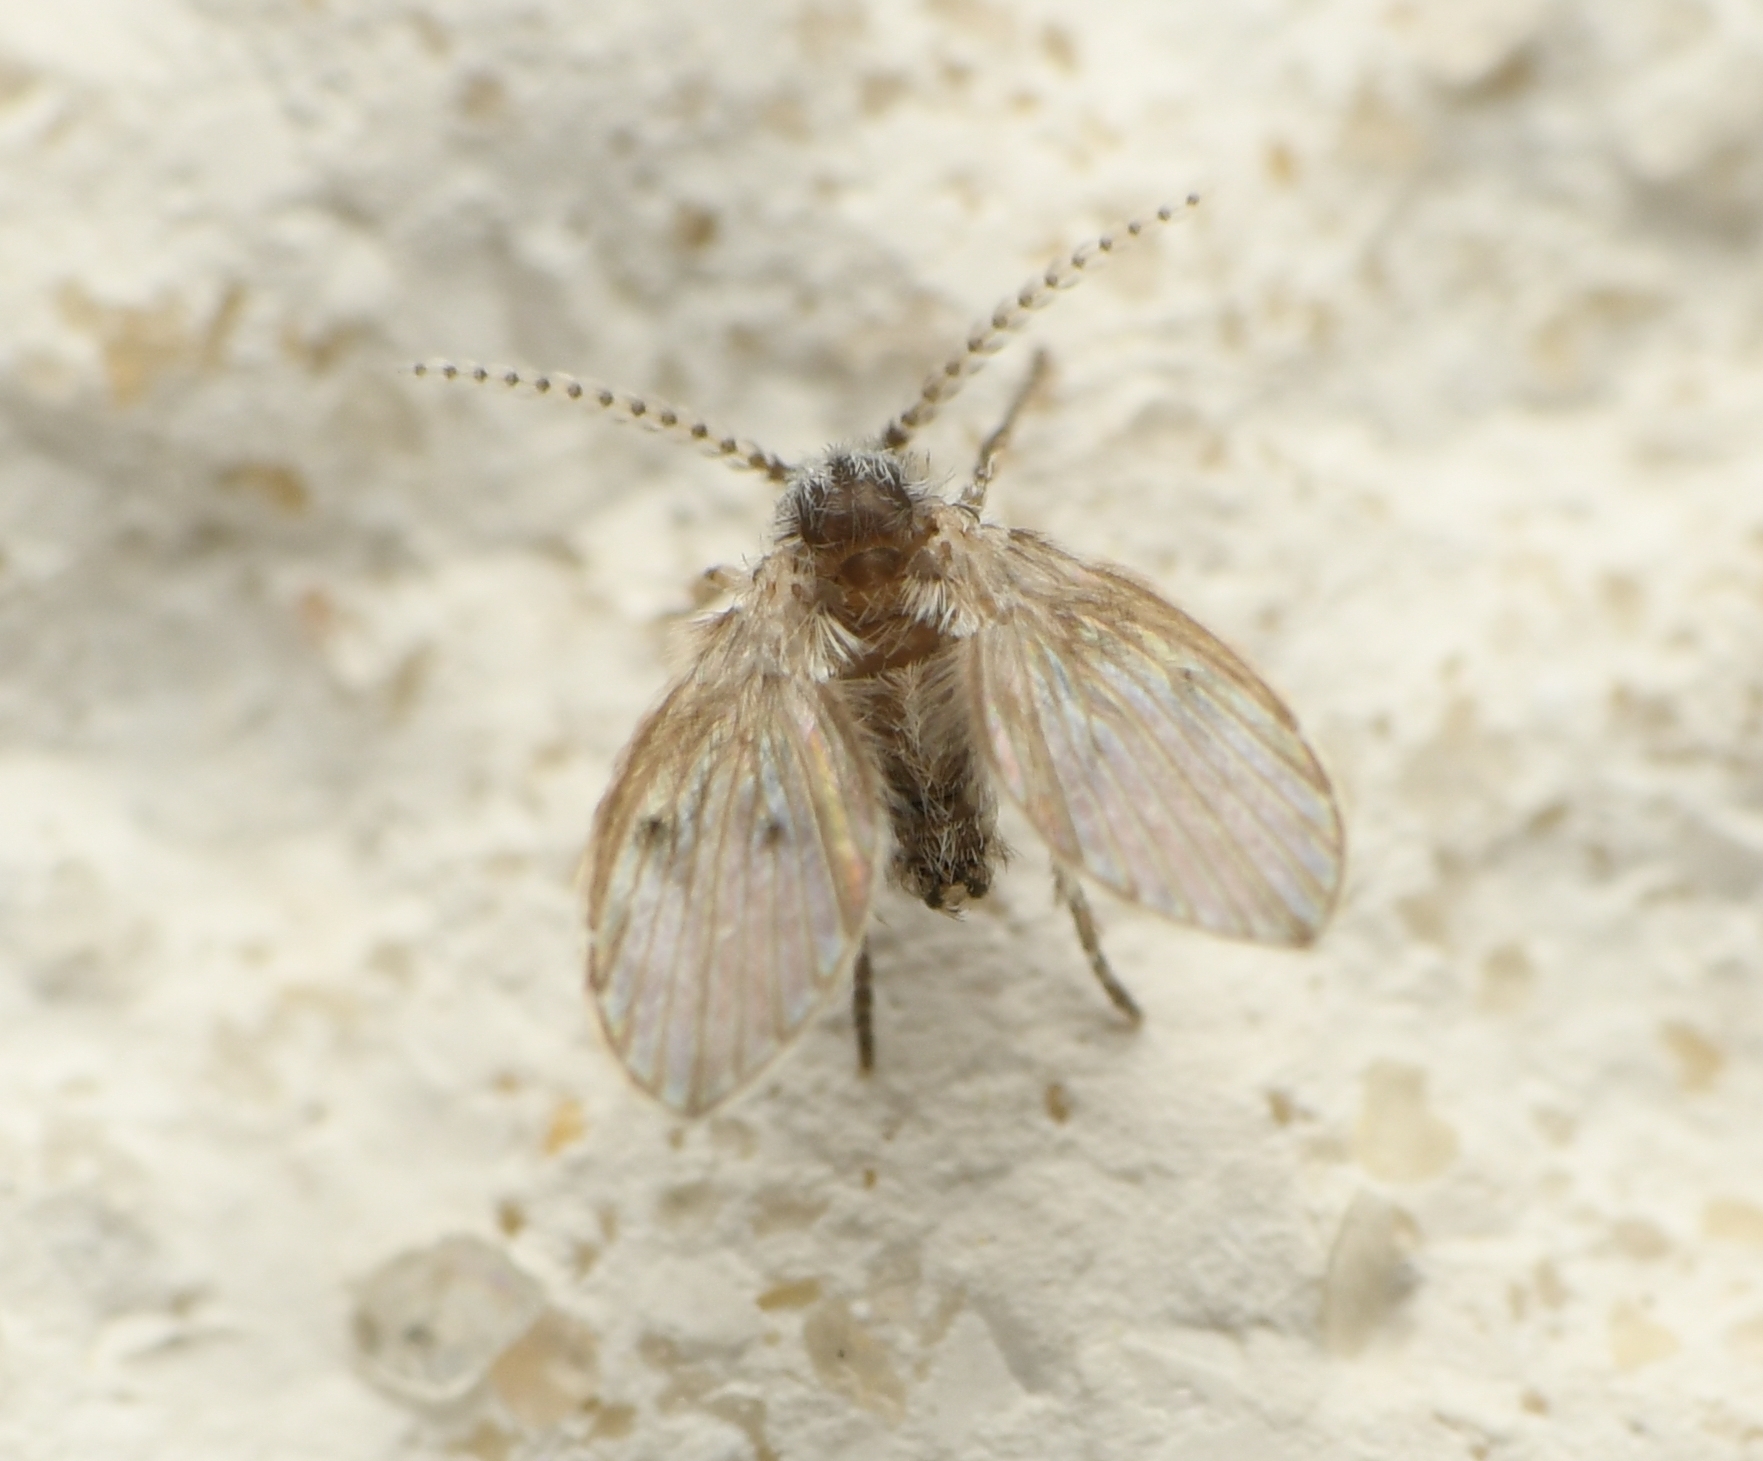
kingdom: Animalia
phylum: Arthropoda
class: Insecta
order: Diptera
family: Psychodidae
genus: Clogmia
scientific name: Clogmia albipunctatus
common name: White-spotted moth fly
